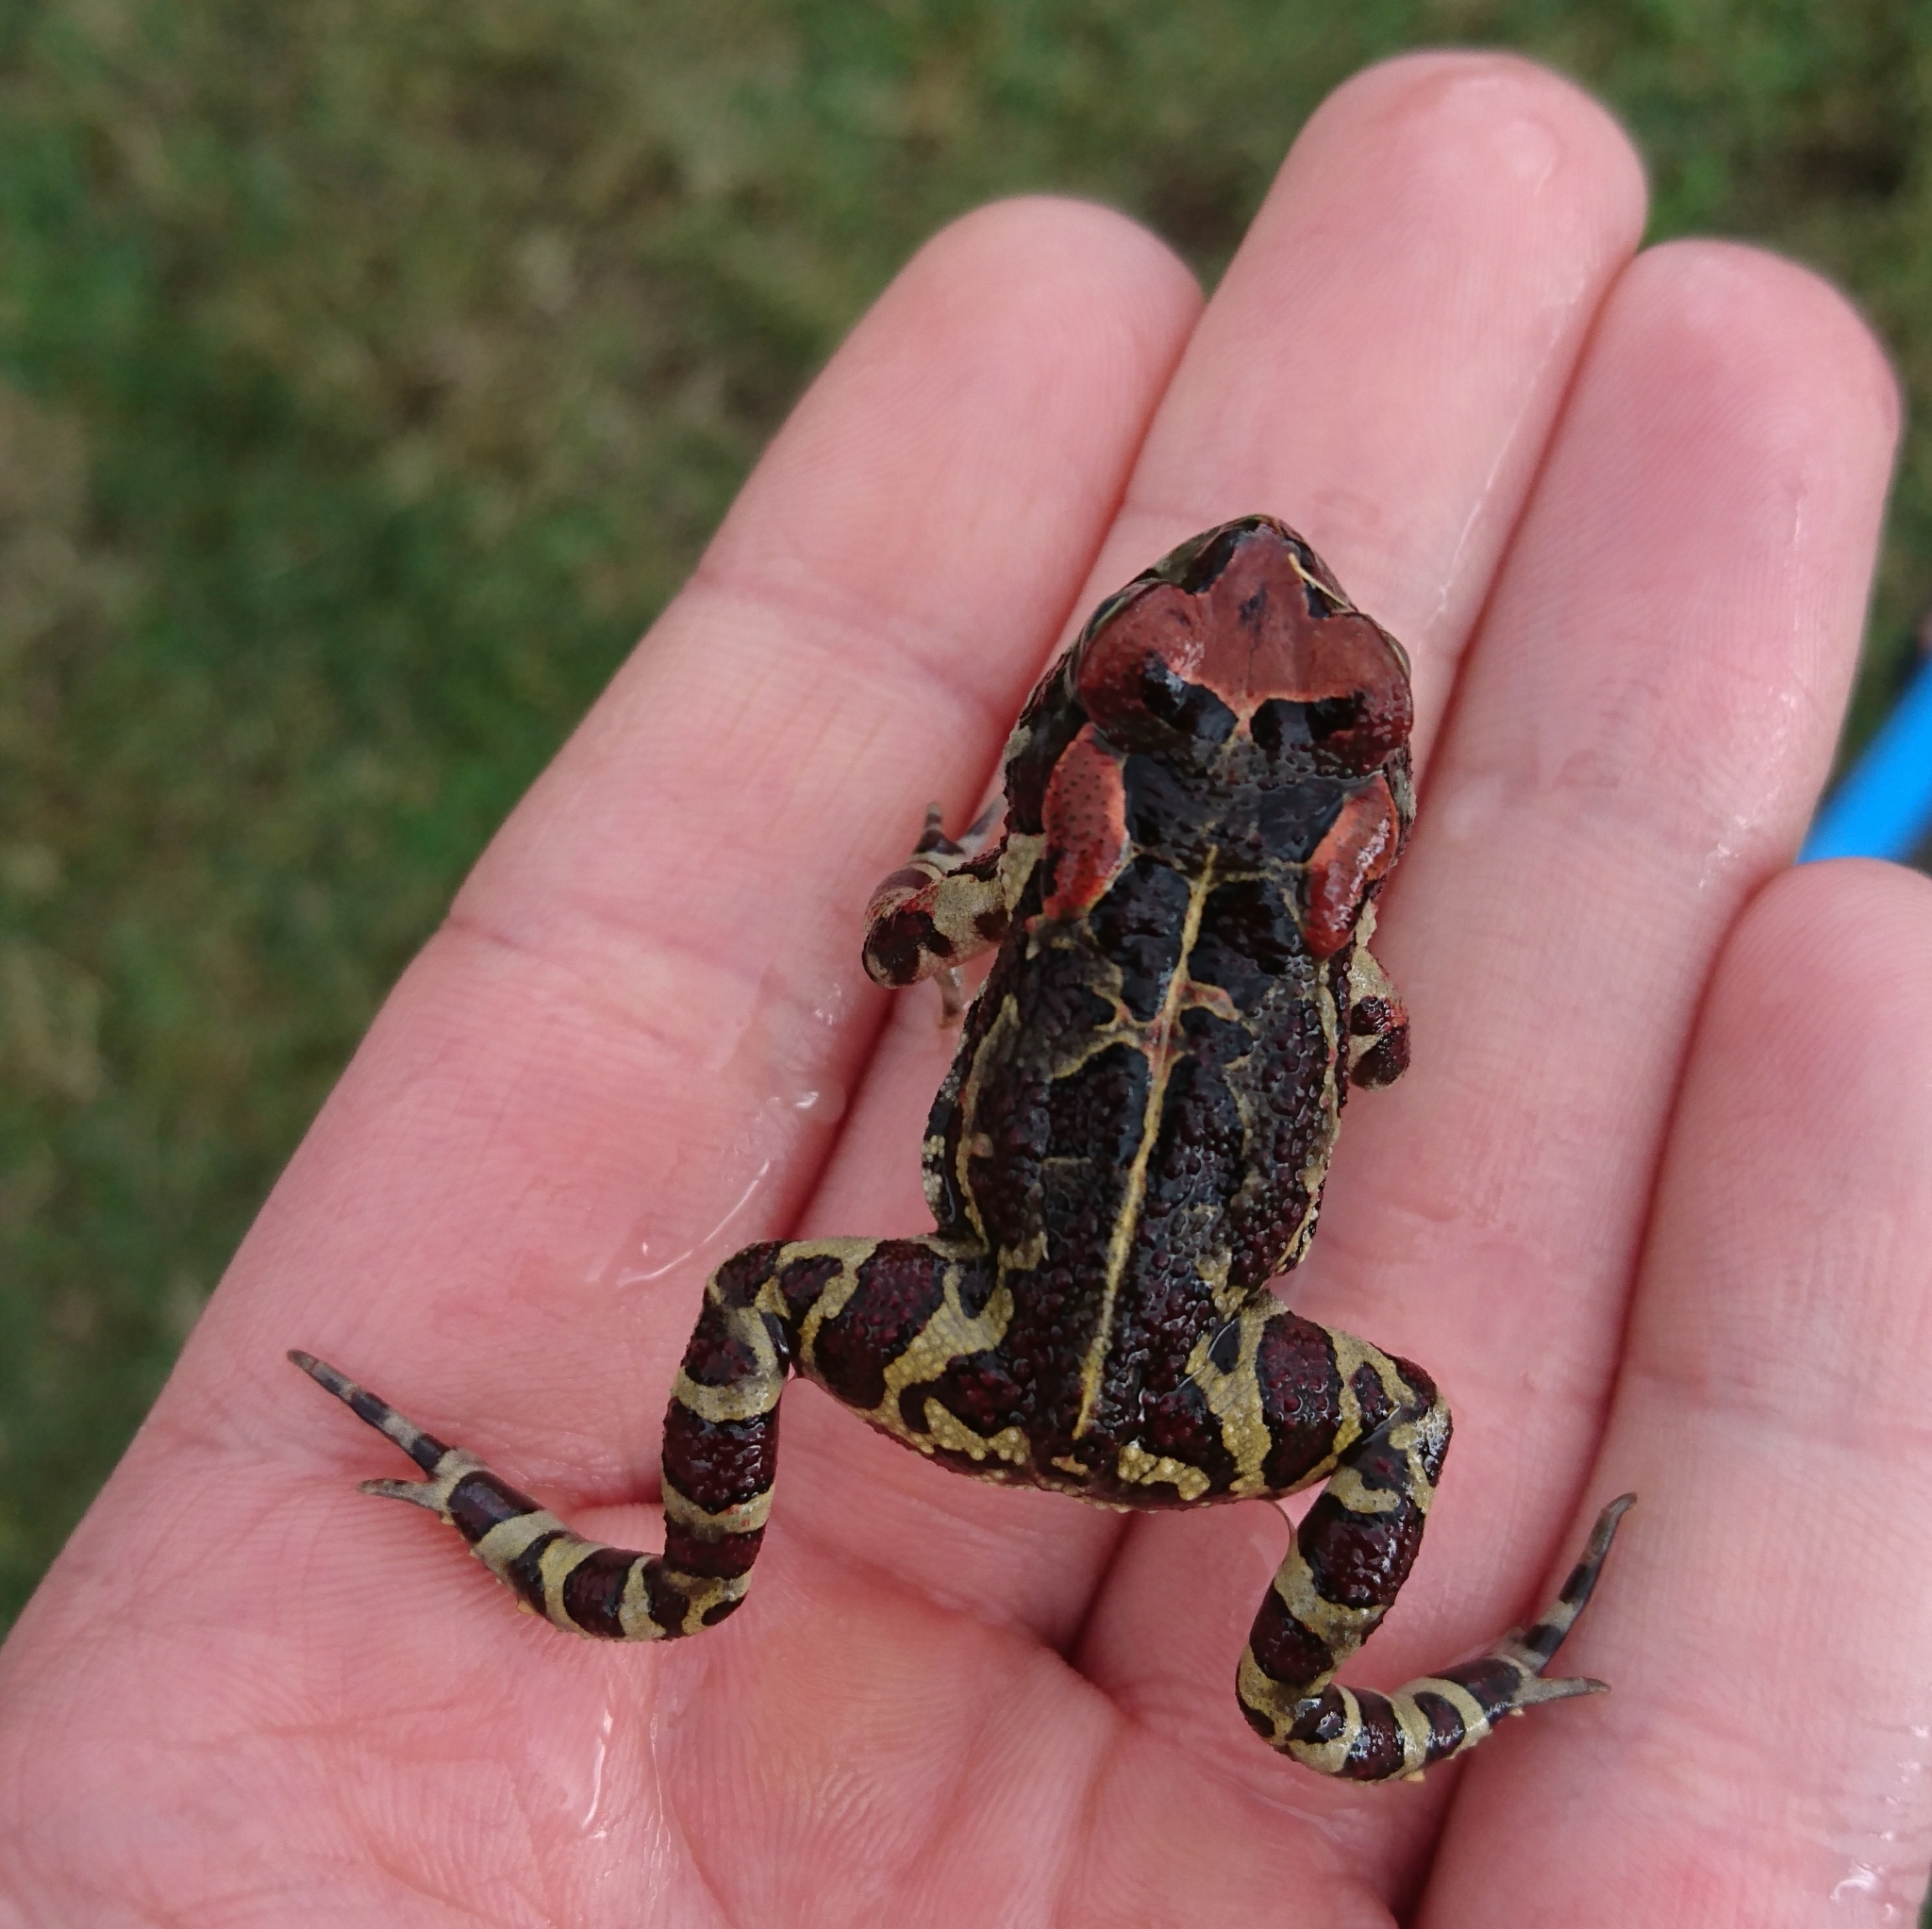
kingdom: Animalia
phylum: Chordata
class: Amphibia
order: Anura
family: Bufonidae
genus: Sclerophrys
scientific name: Sclerophrys pantherina
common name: Panther toad
